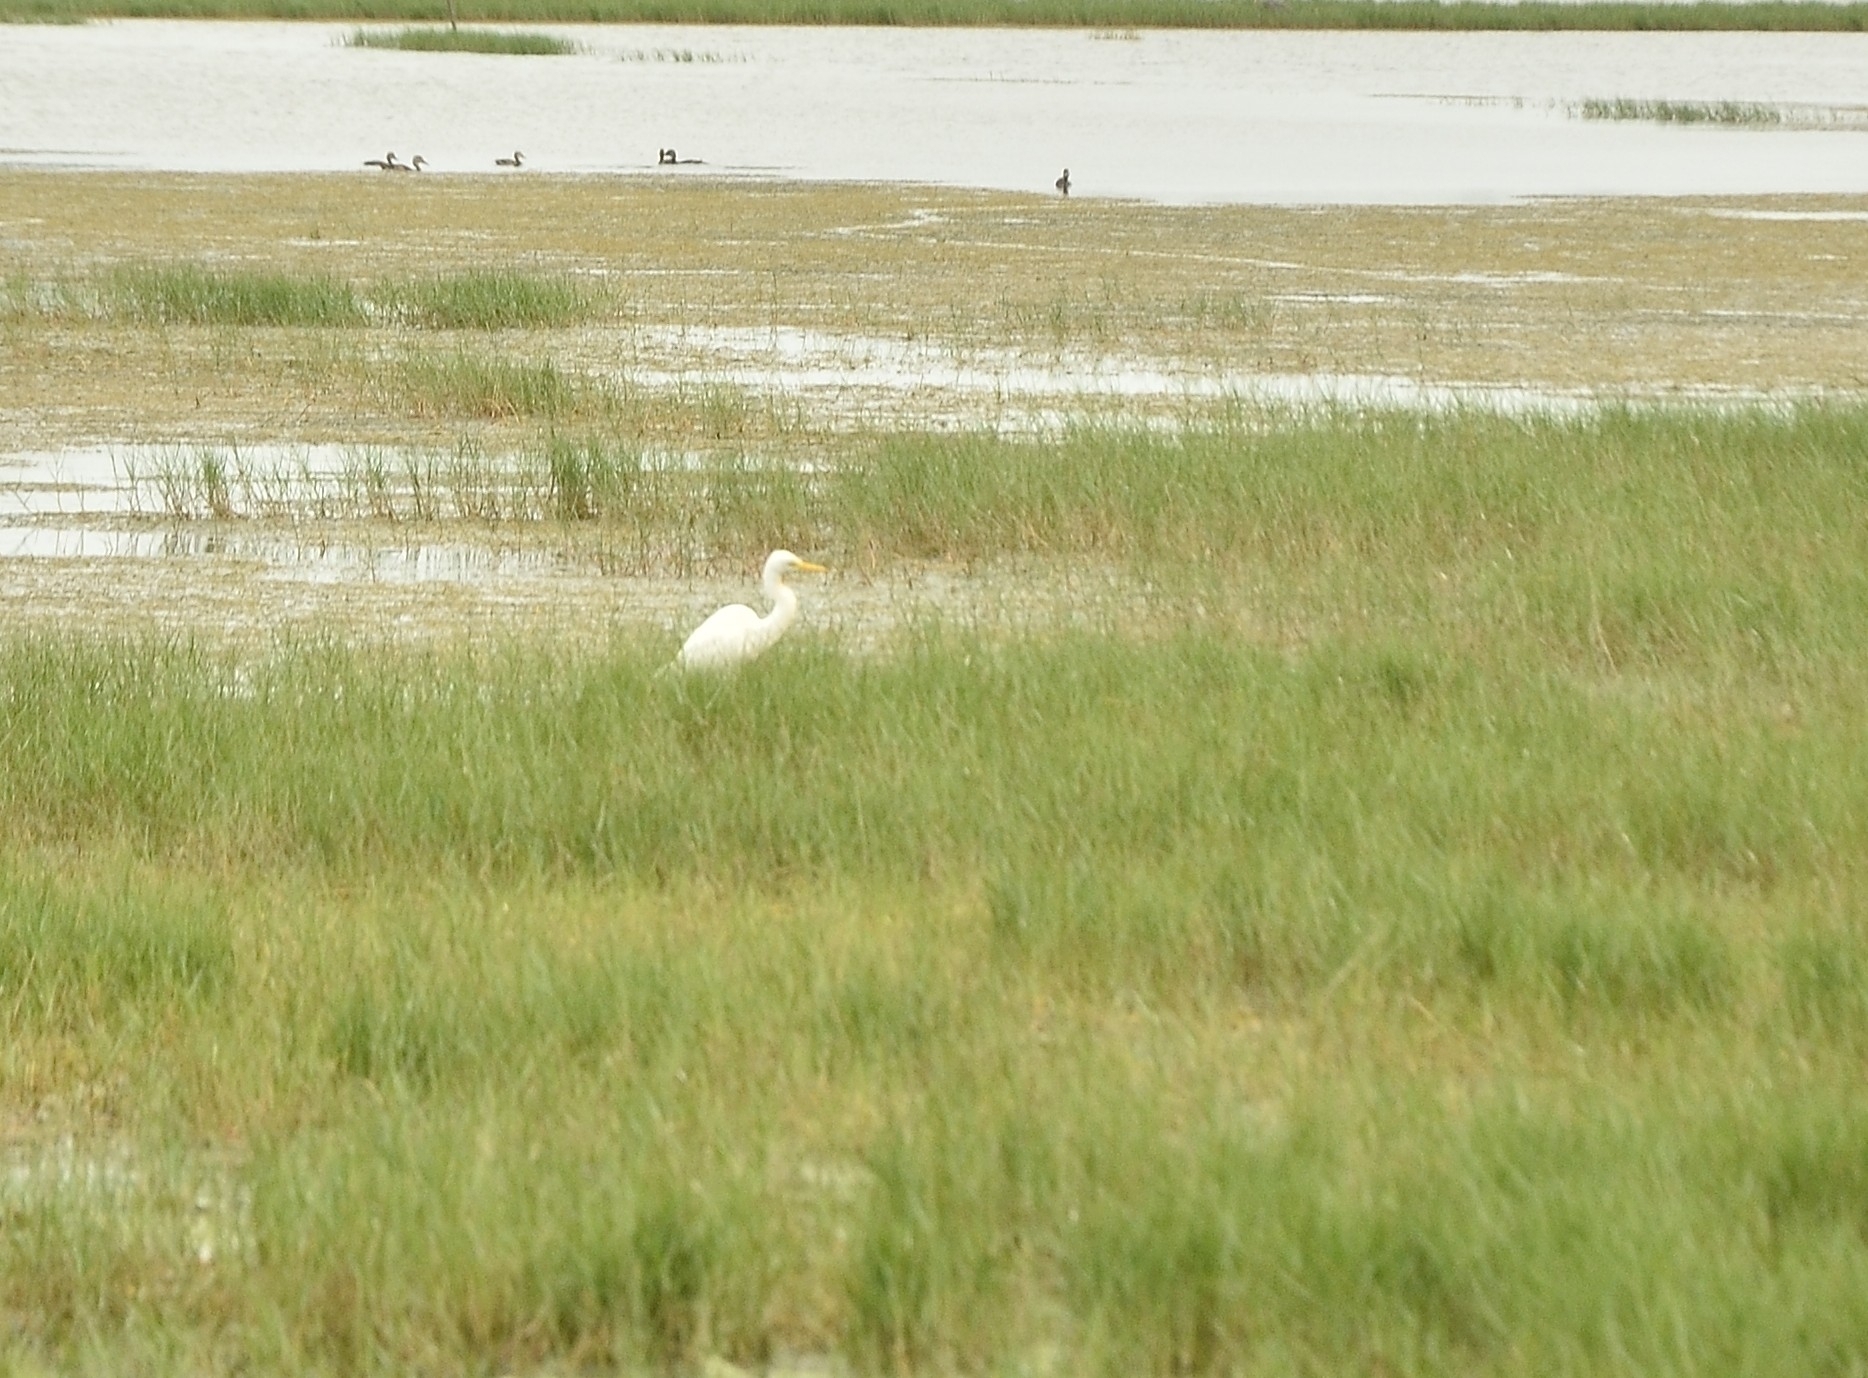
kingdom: Animalia
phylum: Chordata
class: Aves
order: Pelecaniformes
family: Ardeidae
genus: Ardea
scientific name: Ardea alba
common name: Great egret
